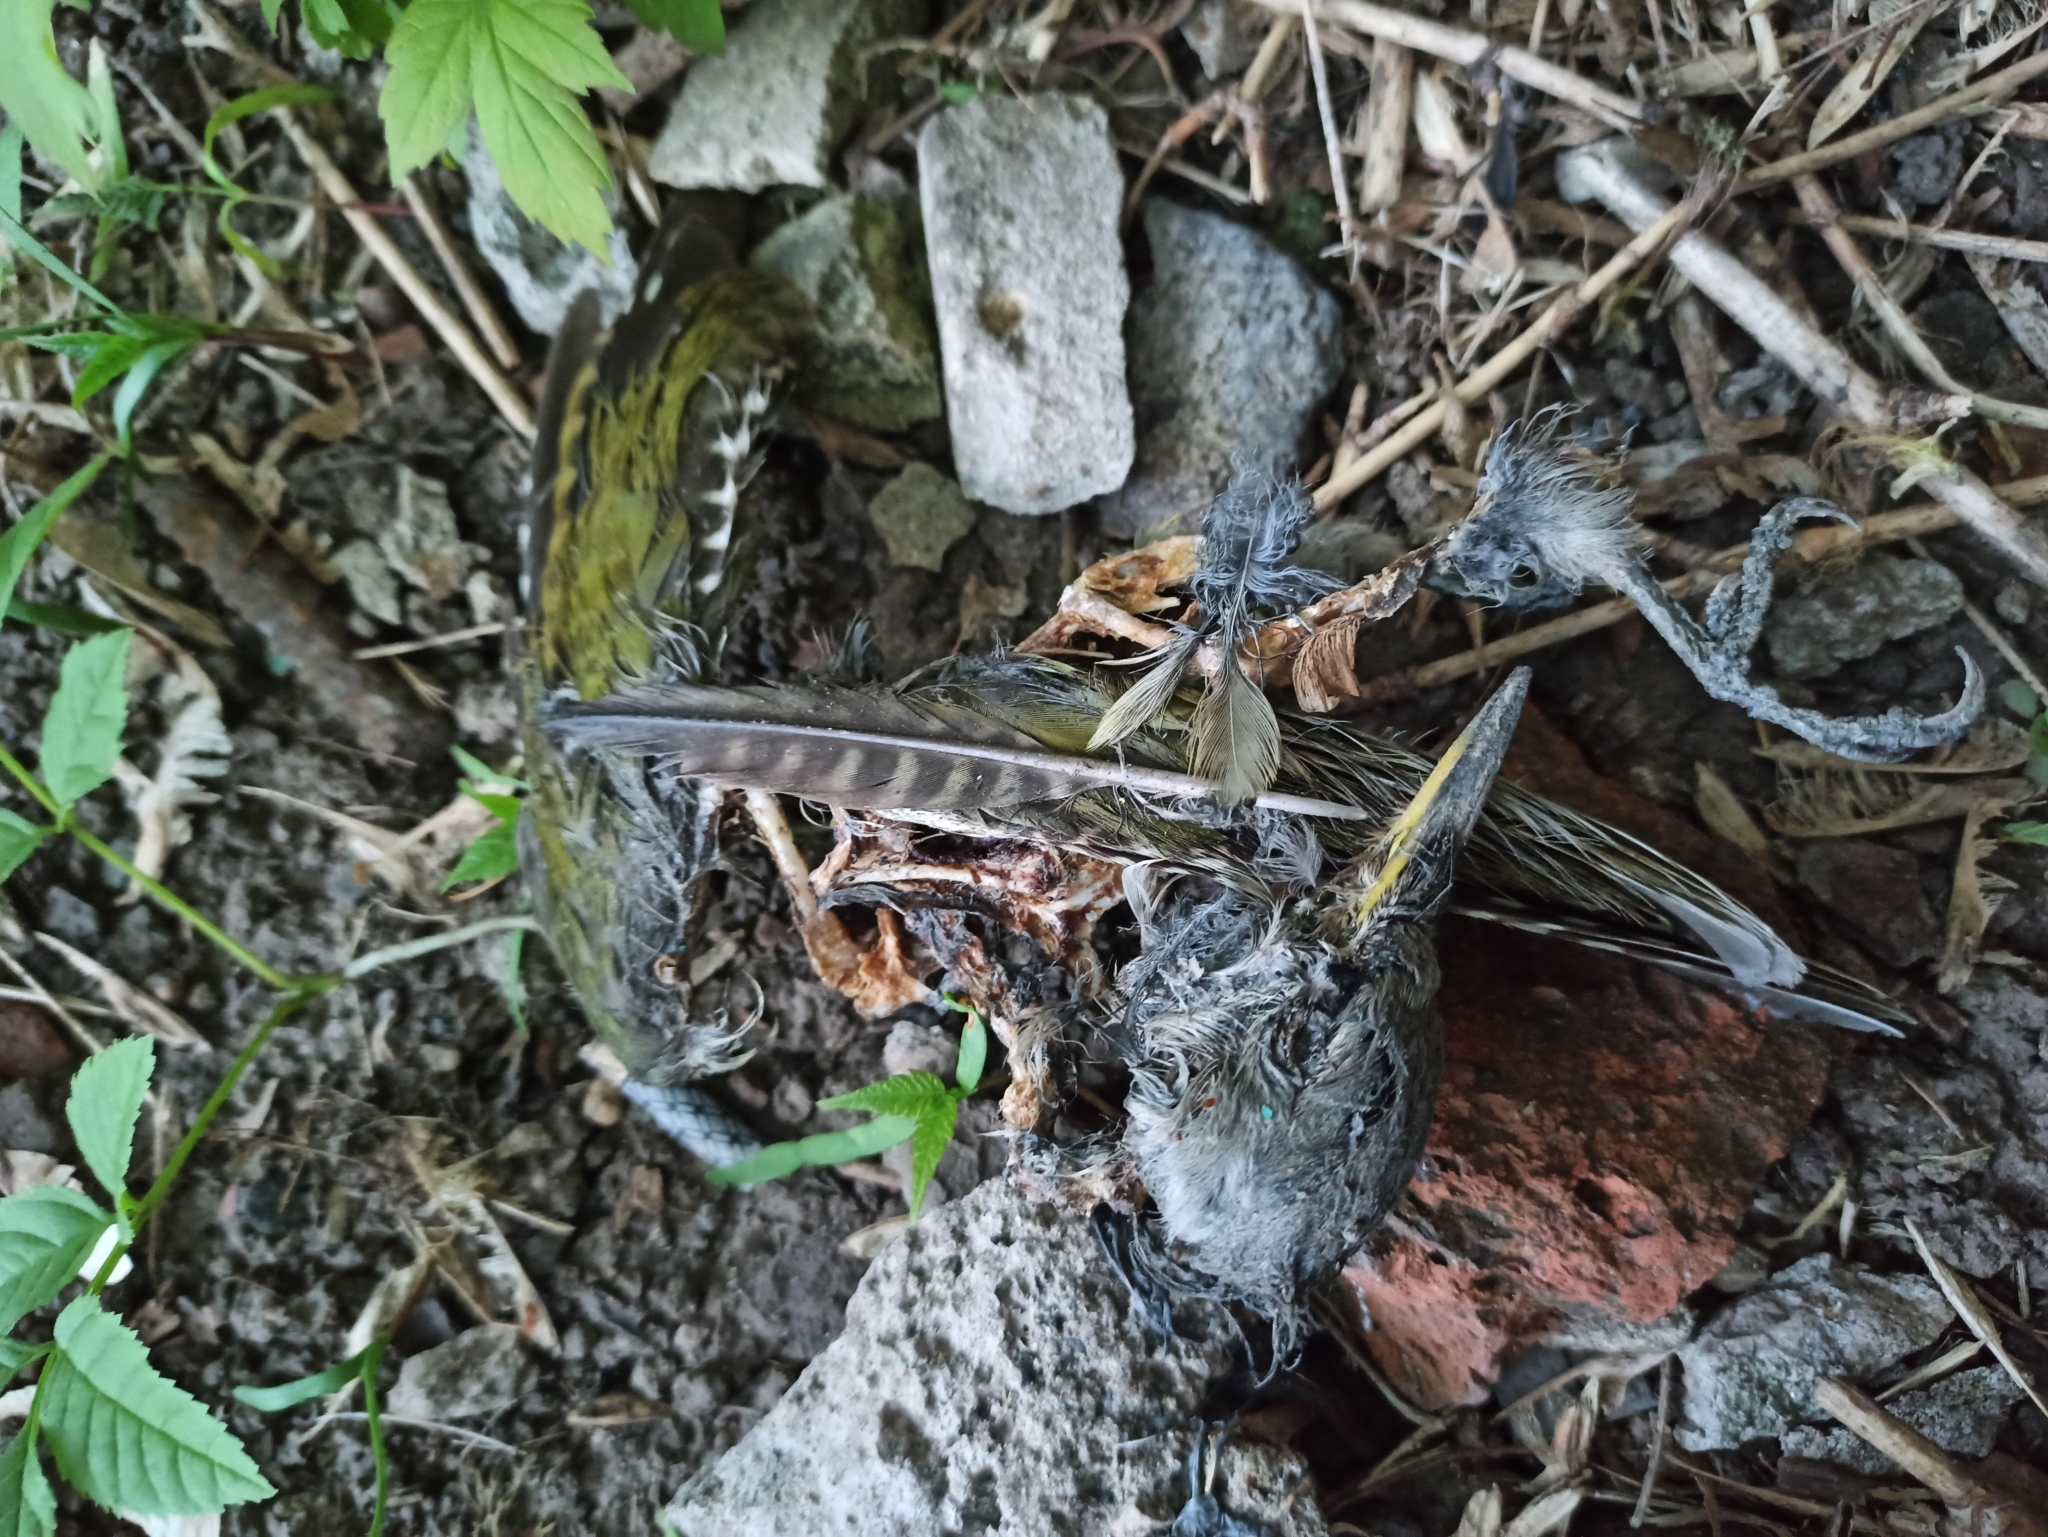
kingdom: Animalia
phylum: Chordata
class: Aves
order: Piciformes
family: Picidae
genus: Picus
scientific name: Picus canus
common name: Grey-headed woodpecker
